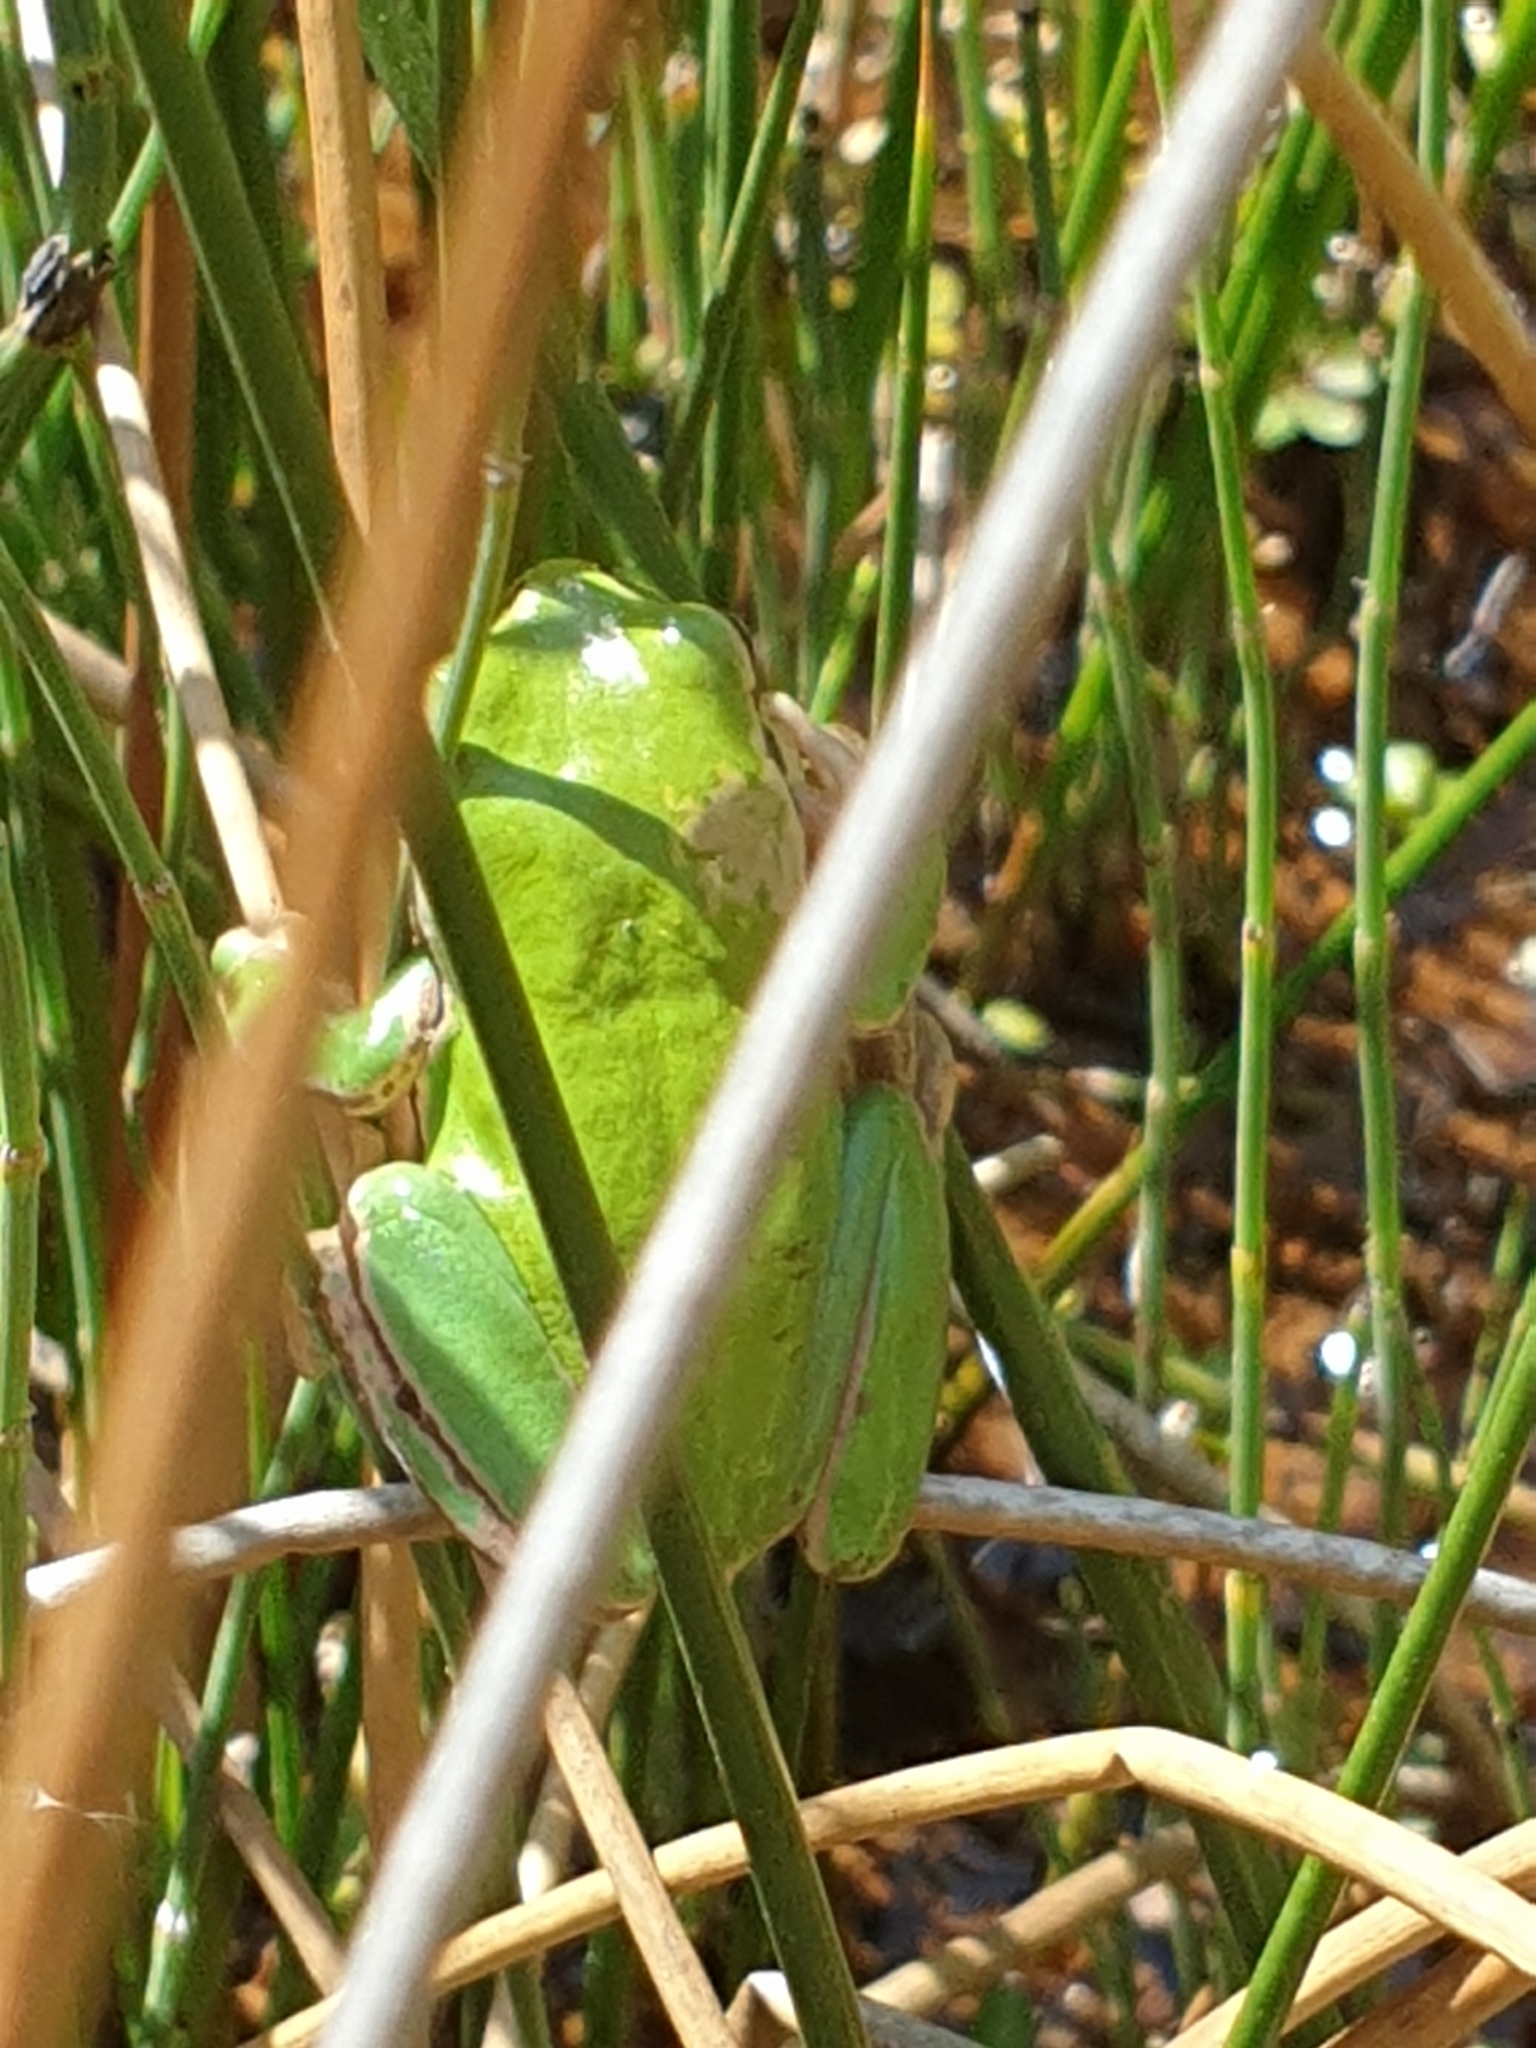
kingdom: Animalia
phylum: Chordata
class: Amphibia
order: Anura
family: Hylidae
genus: Hyla
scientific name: Hyla felixarabica
